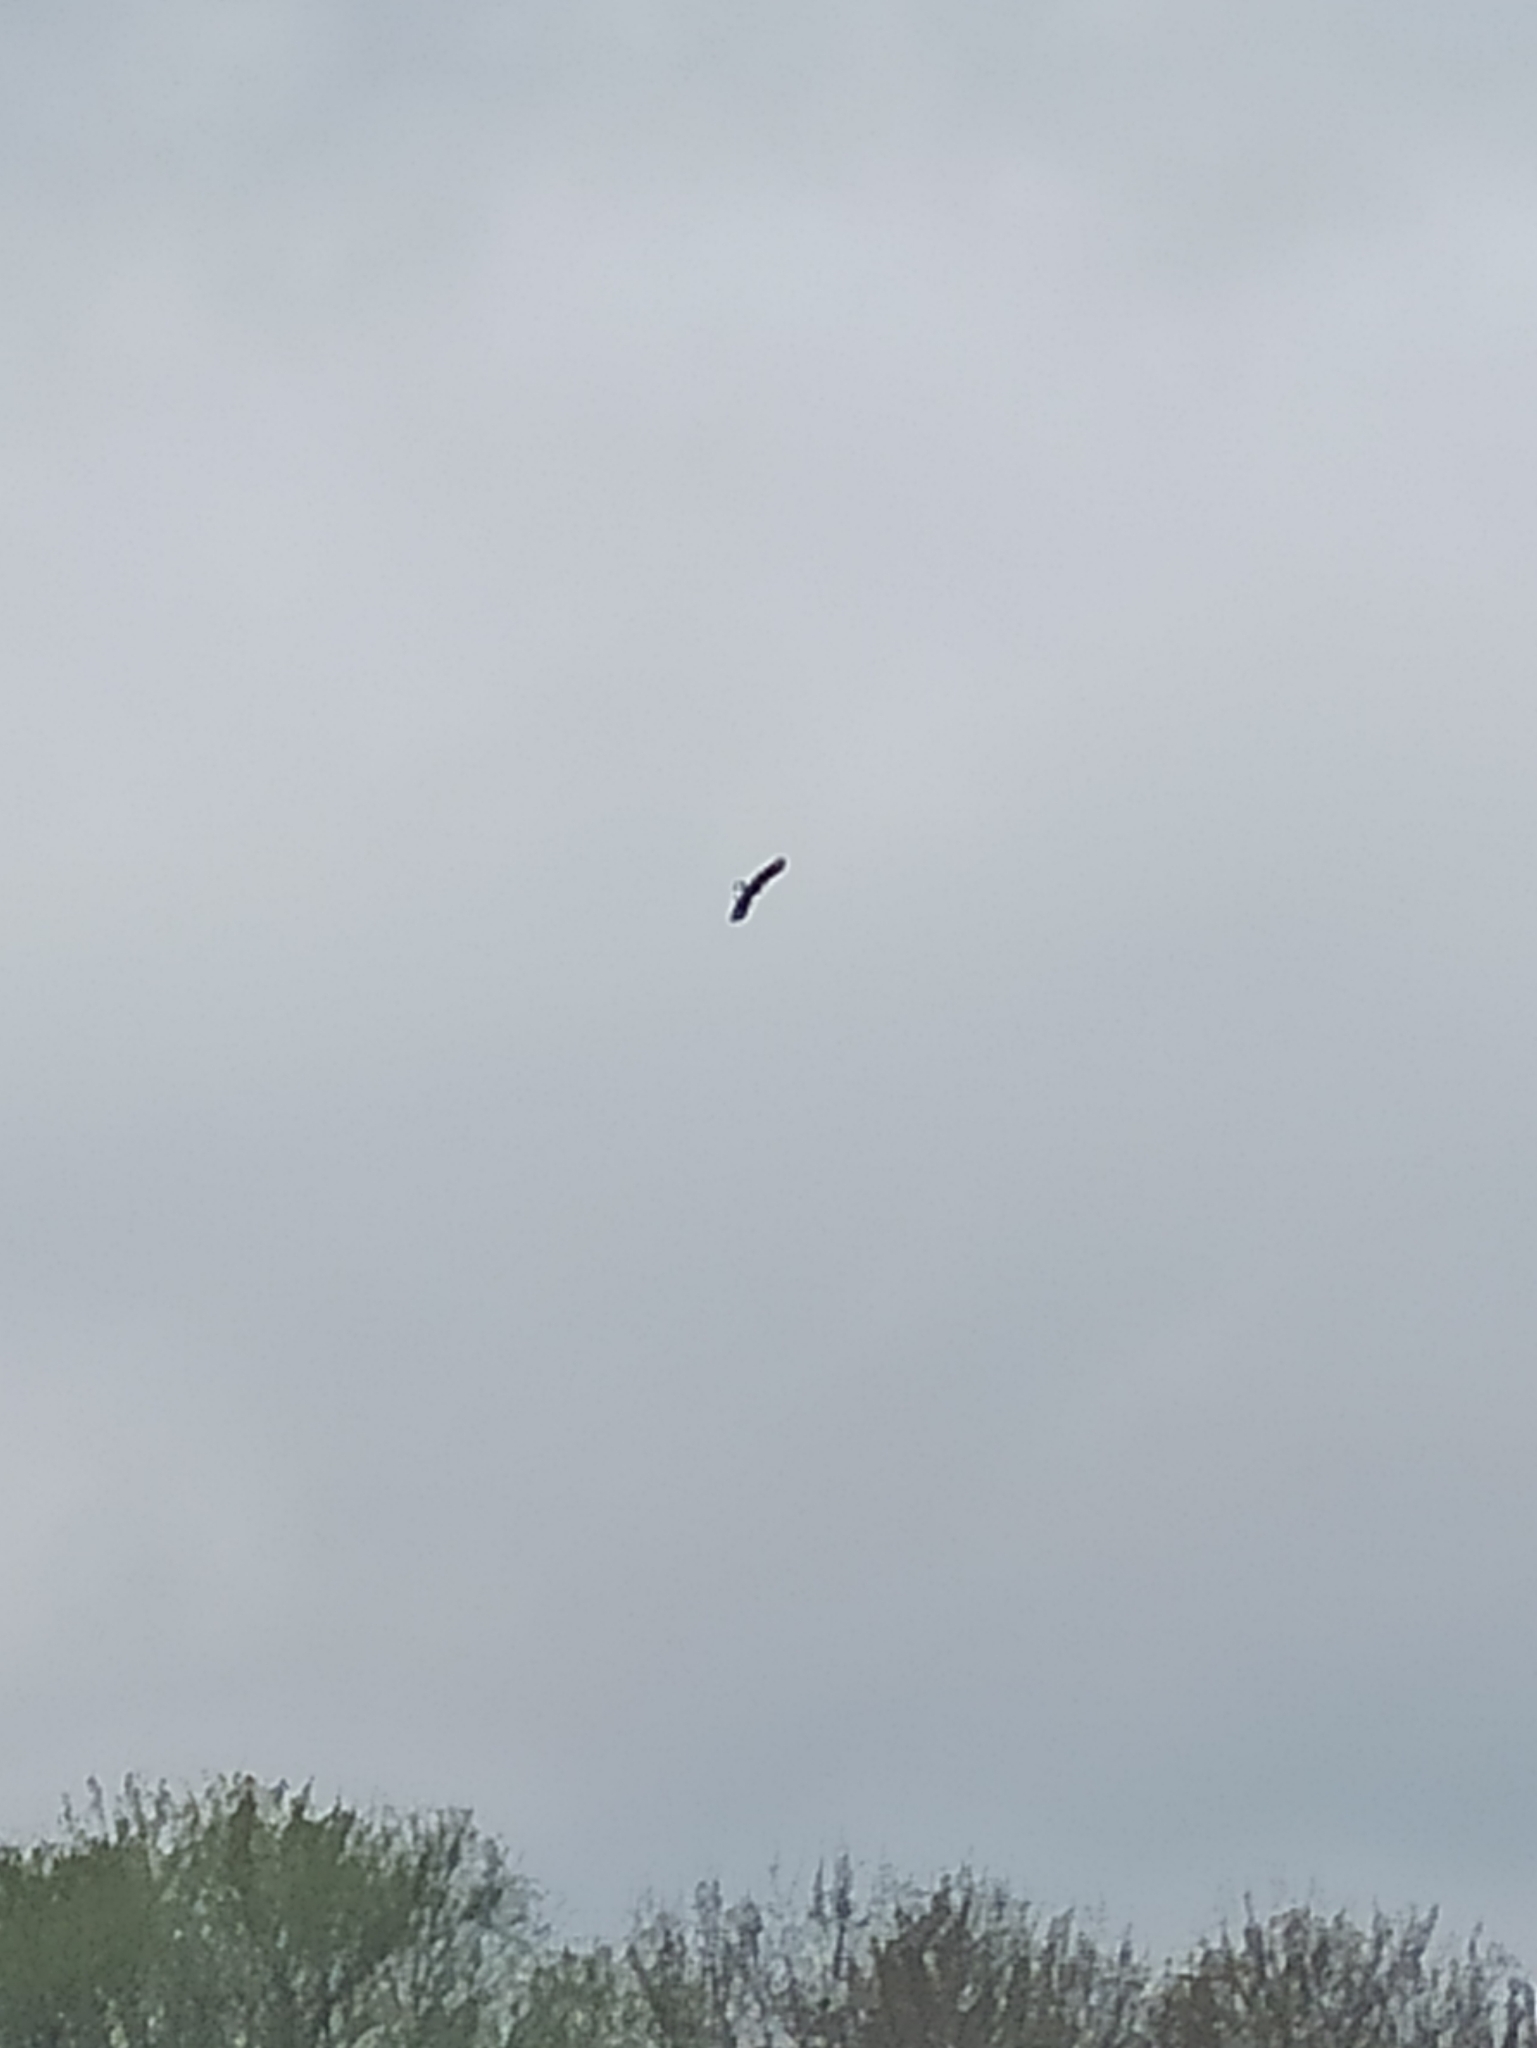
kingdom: Animalia
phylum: Chordata
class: Aves
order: Accipitriformes
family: Accipitridae
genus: Milvus
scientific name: Milvus migrans
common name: Black kite
